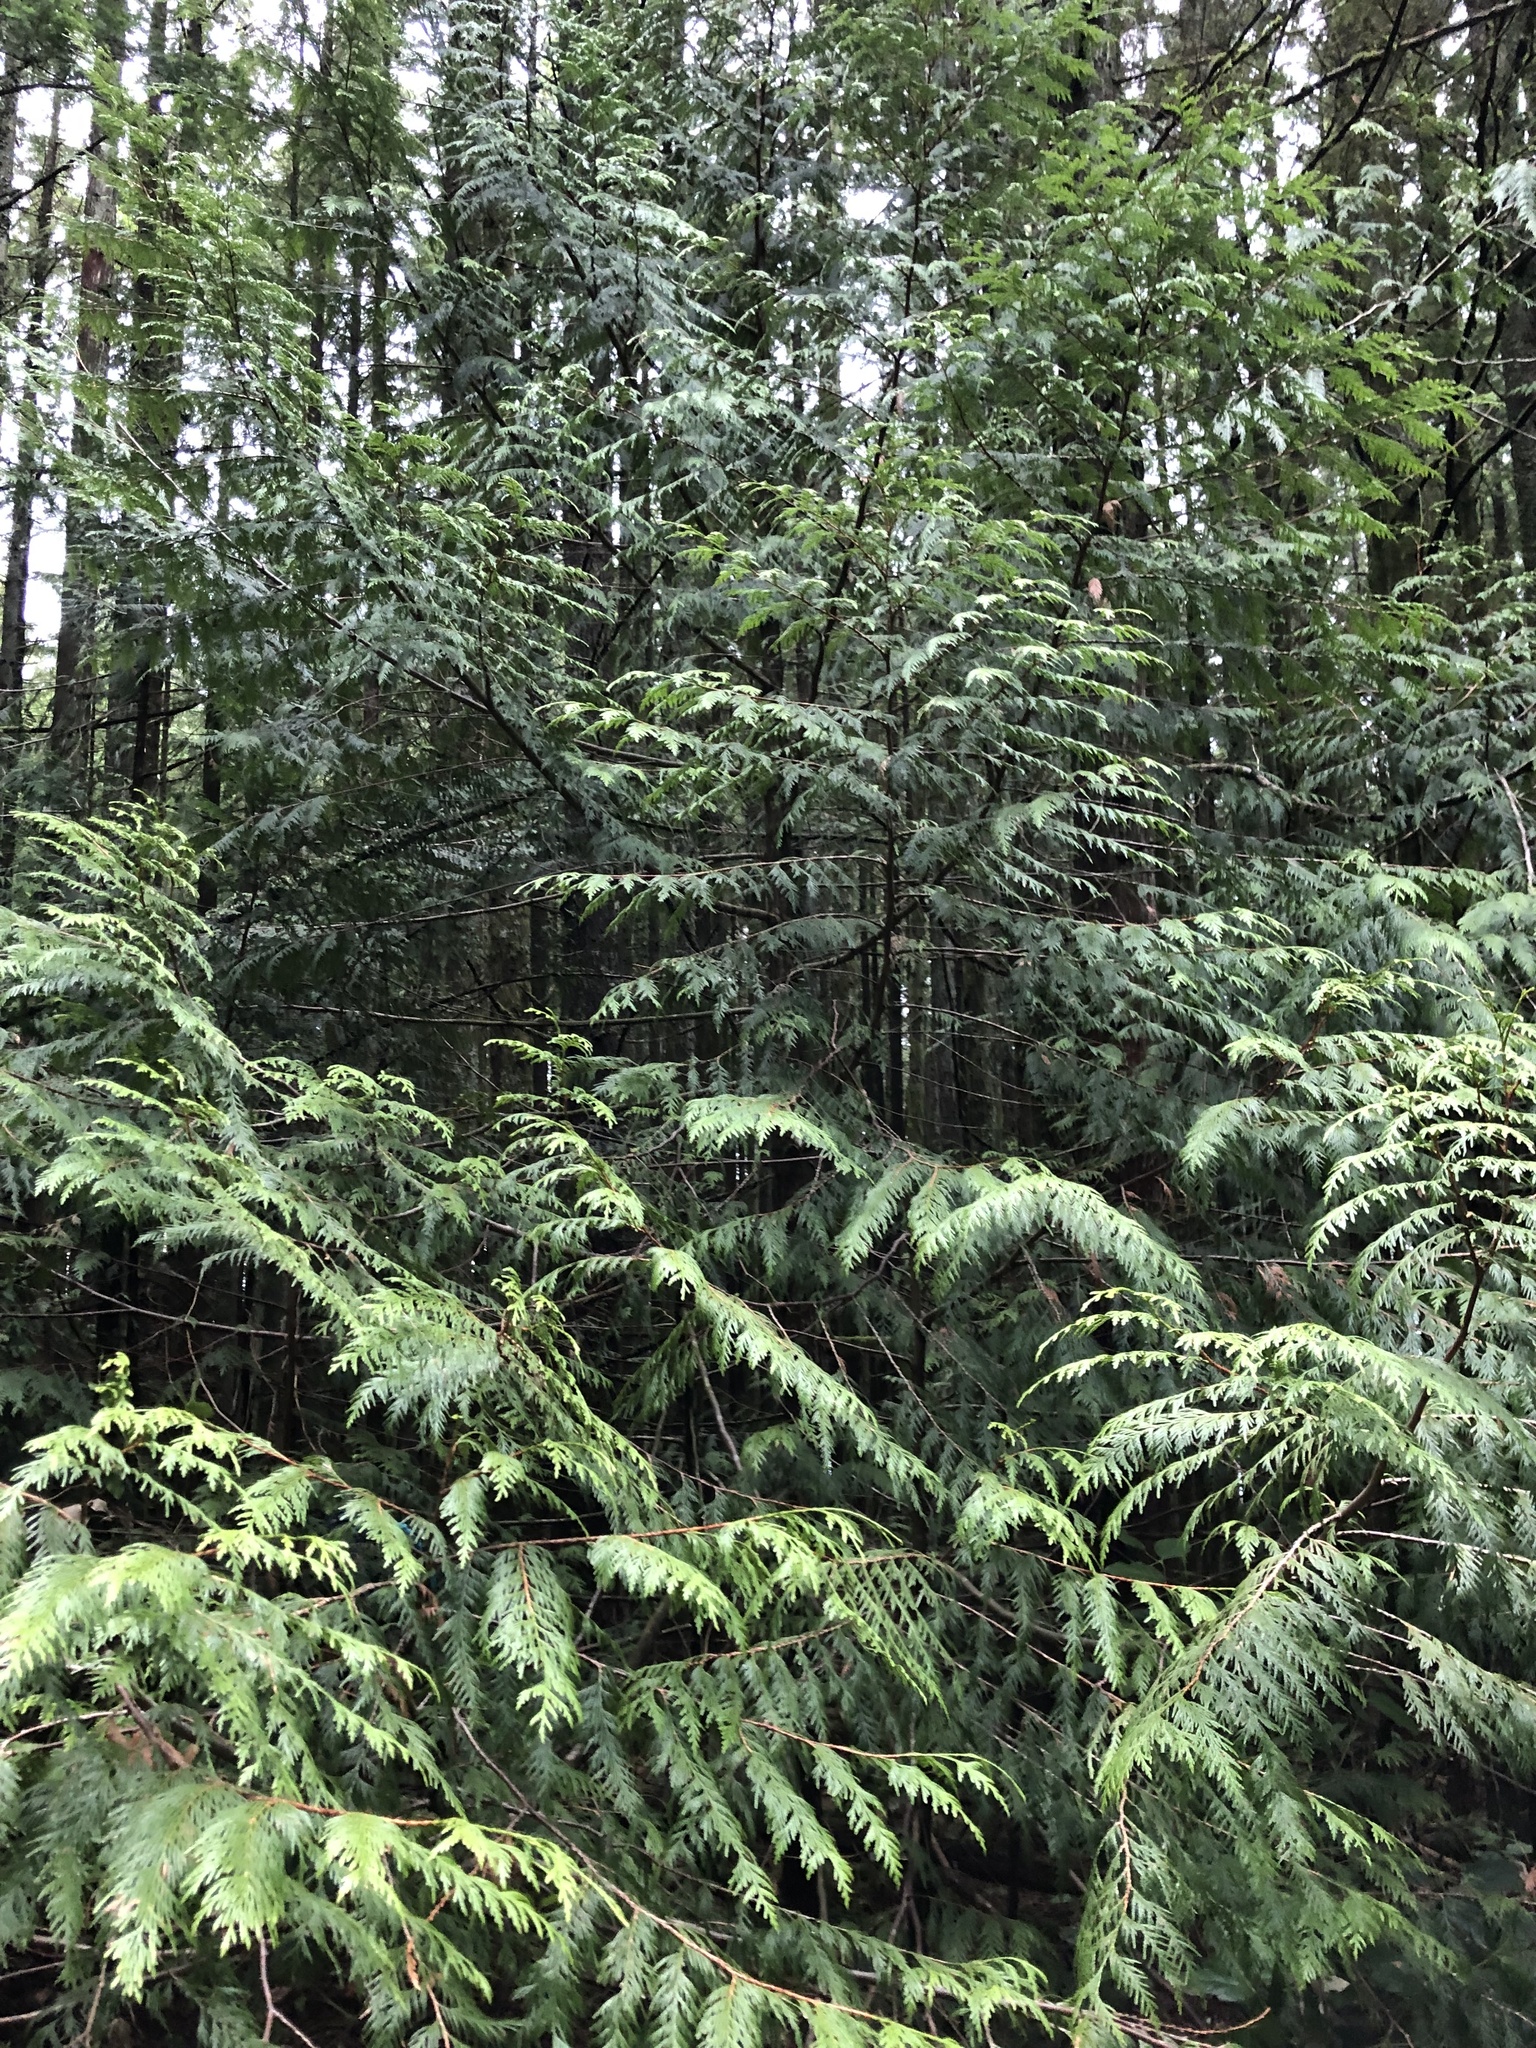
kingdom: Plantae
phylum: Tracheophyta
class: Pinopsida
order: Pinales
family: Cupressaceae
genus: Thuja
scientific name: Thuja plicata
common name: Western red-cedar
